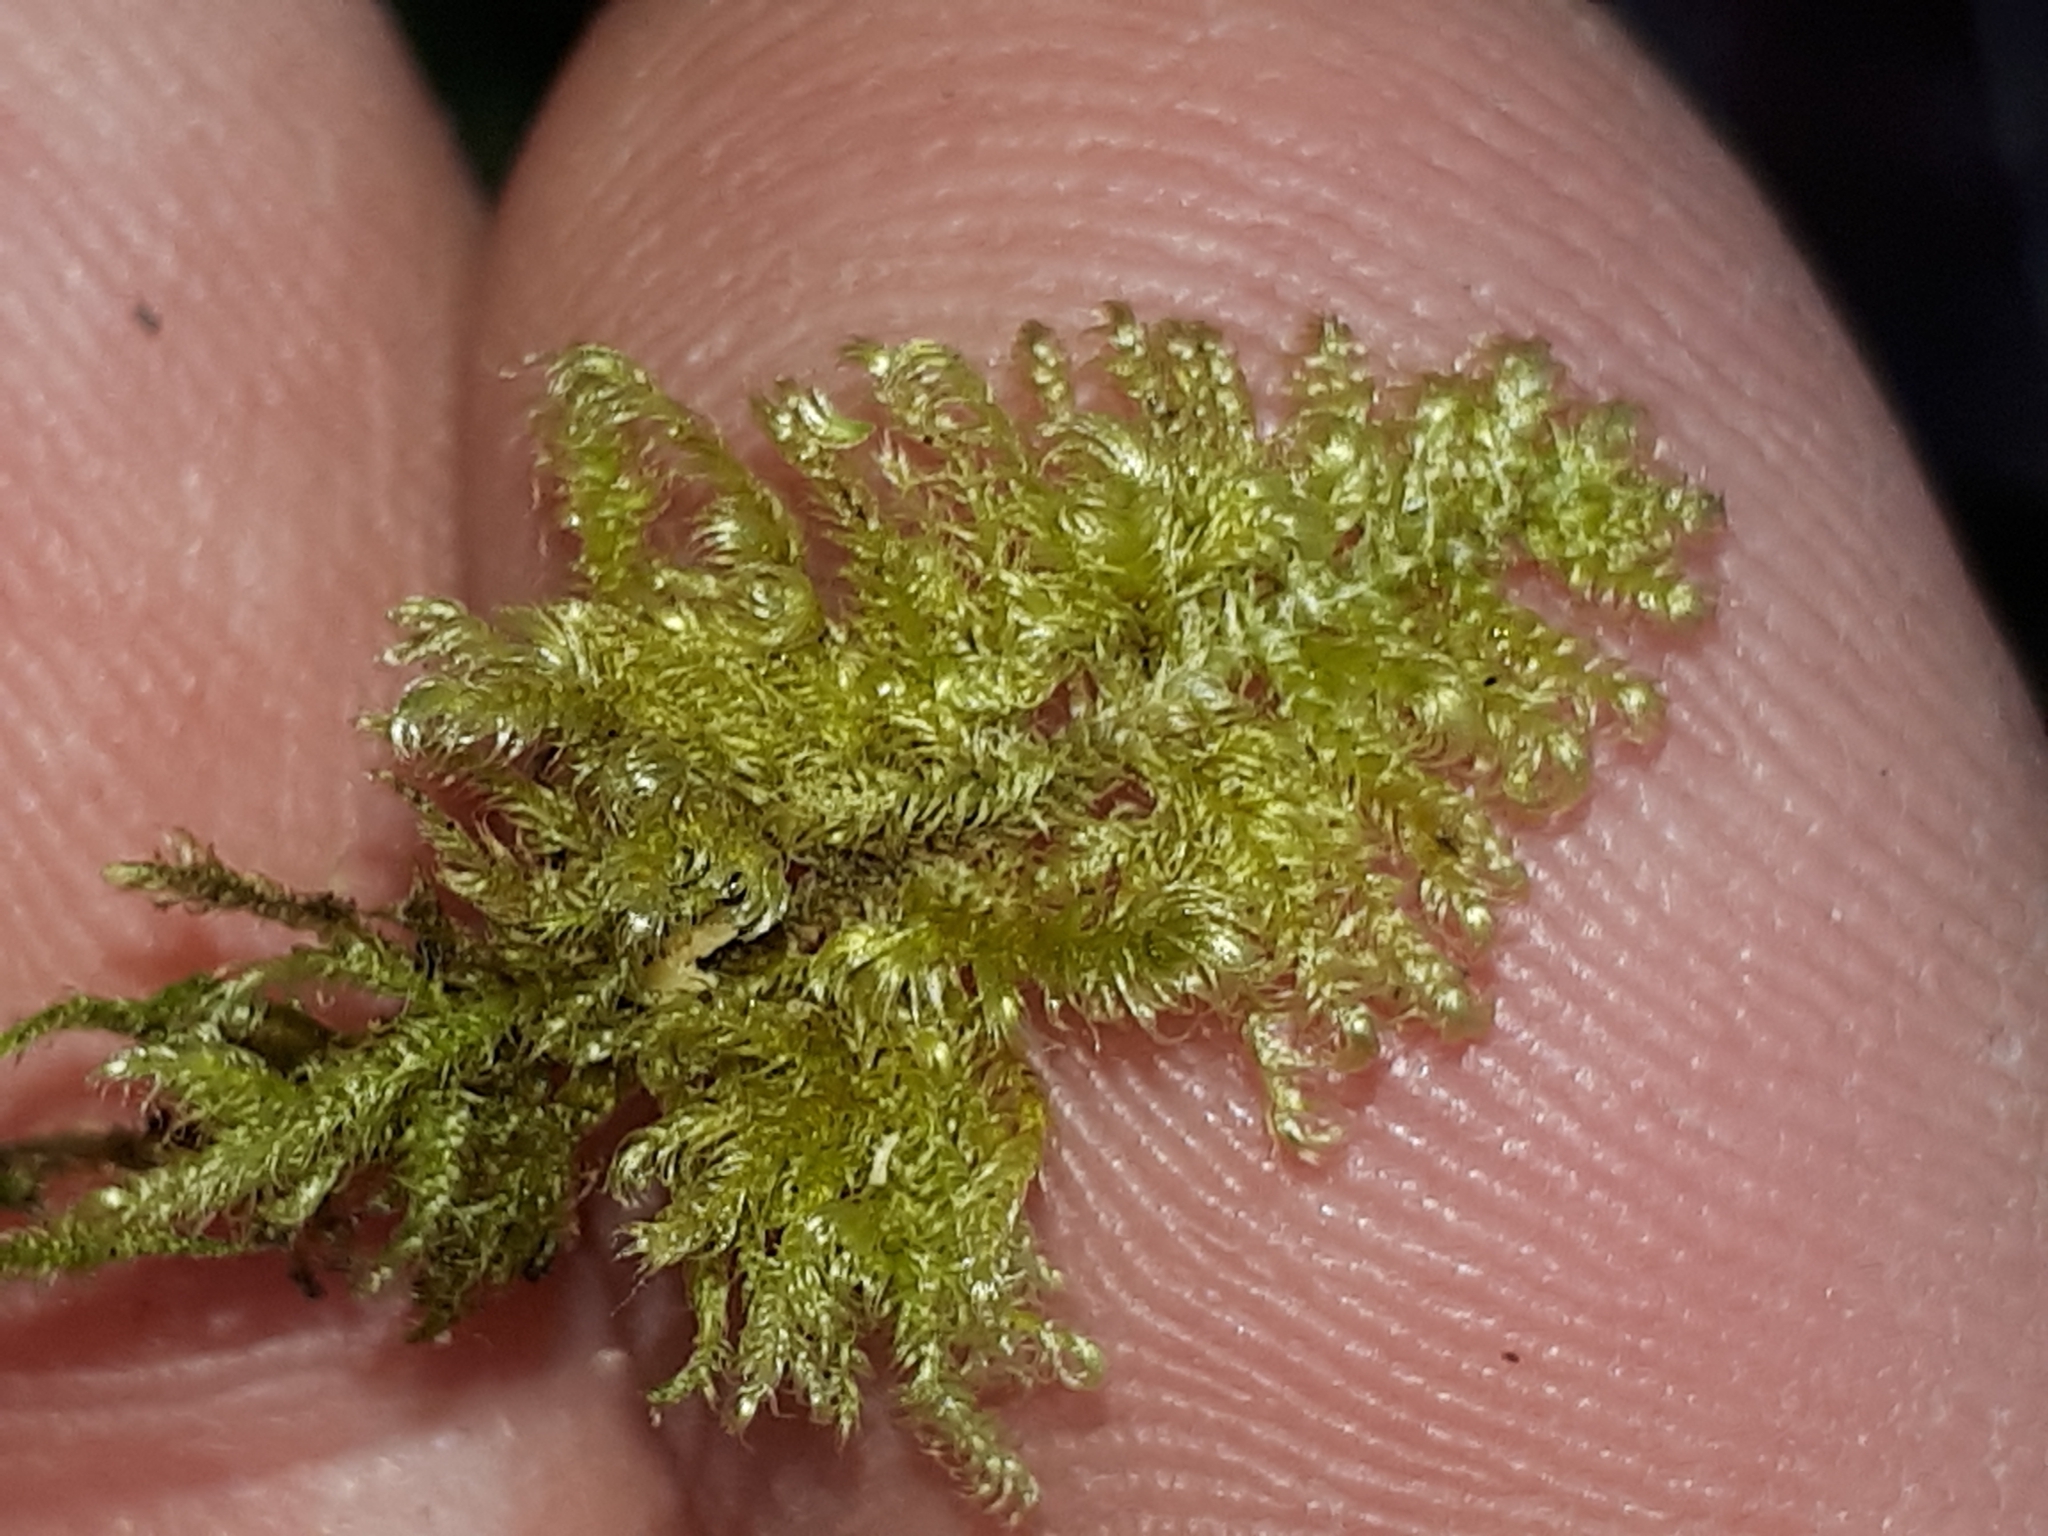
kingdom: Plantae
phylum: Bryophyta
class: Bryopsida
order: Hypnales
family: Myuriaceae
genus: Ctenidium
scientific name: Ctenidium molluscum
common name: Chalk comb-moss
